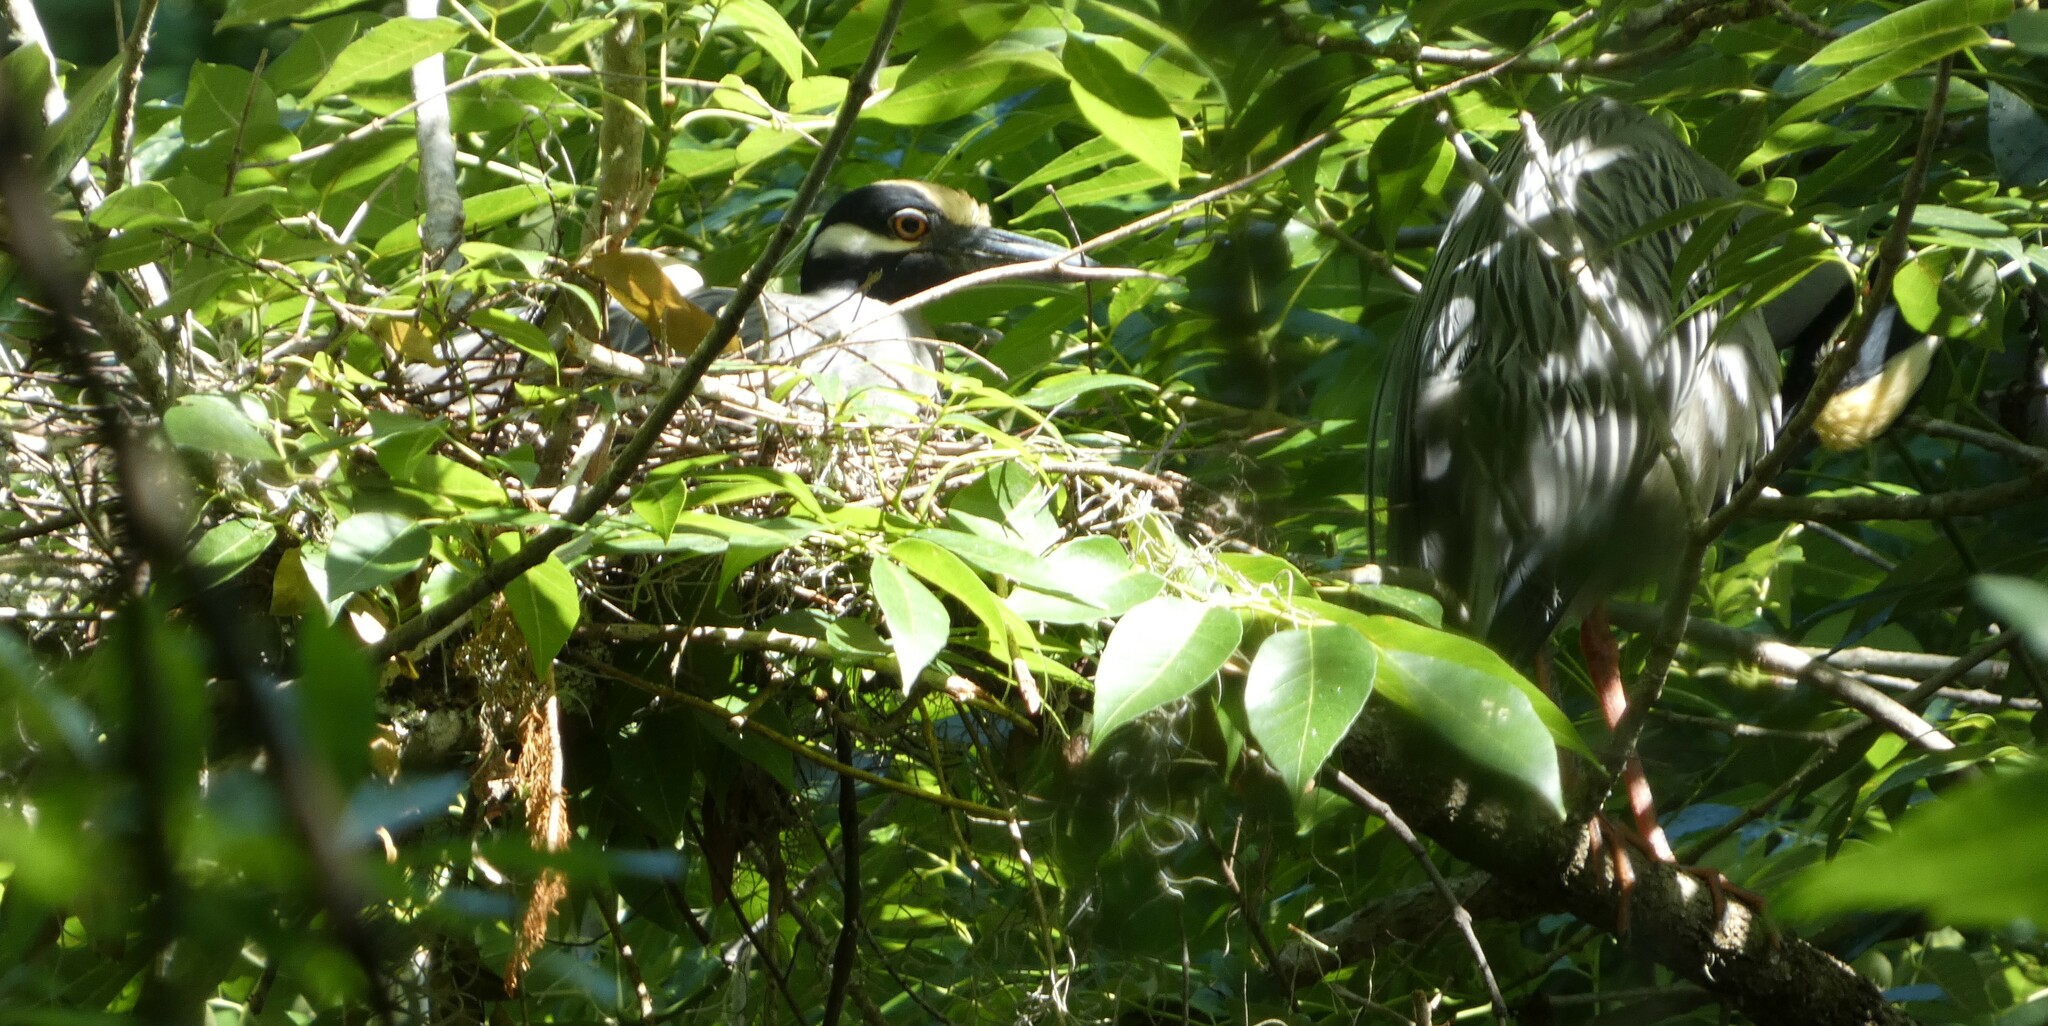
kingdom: Animalia
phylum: Chordata
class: Aves
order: Pelecaniformes
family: Ardeidae
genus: Nyctanassa
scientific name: Nyctanassa violacea
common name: Yellow-crowned night heron
